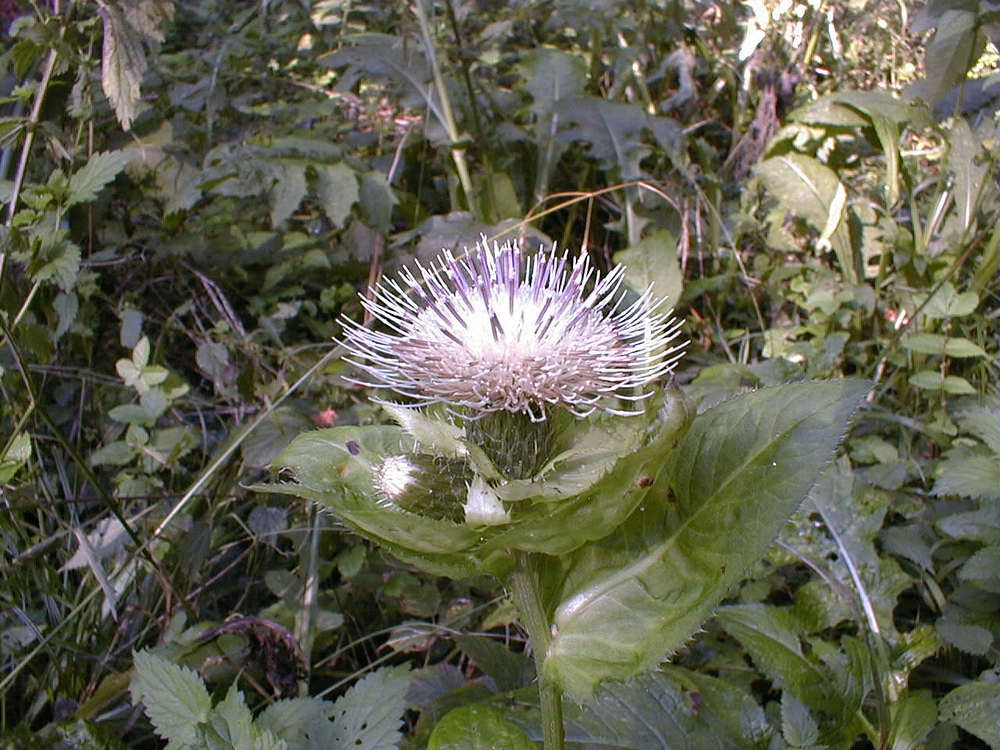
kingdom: Plantae
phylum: Tracheophyta
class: Magnoliopsida
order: Asterales
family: Asteraceae
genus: Cirsium
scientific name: Cirsium oleraceum
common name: Cabbage thistle
